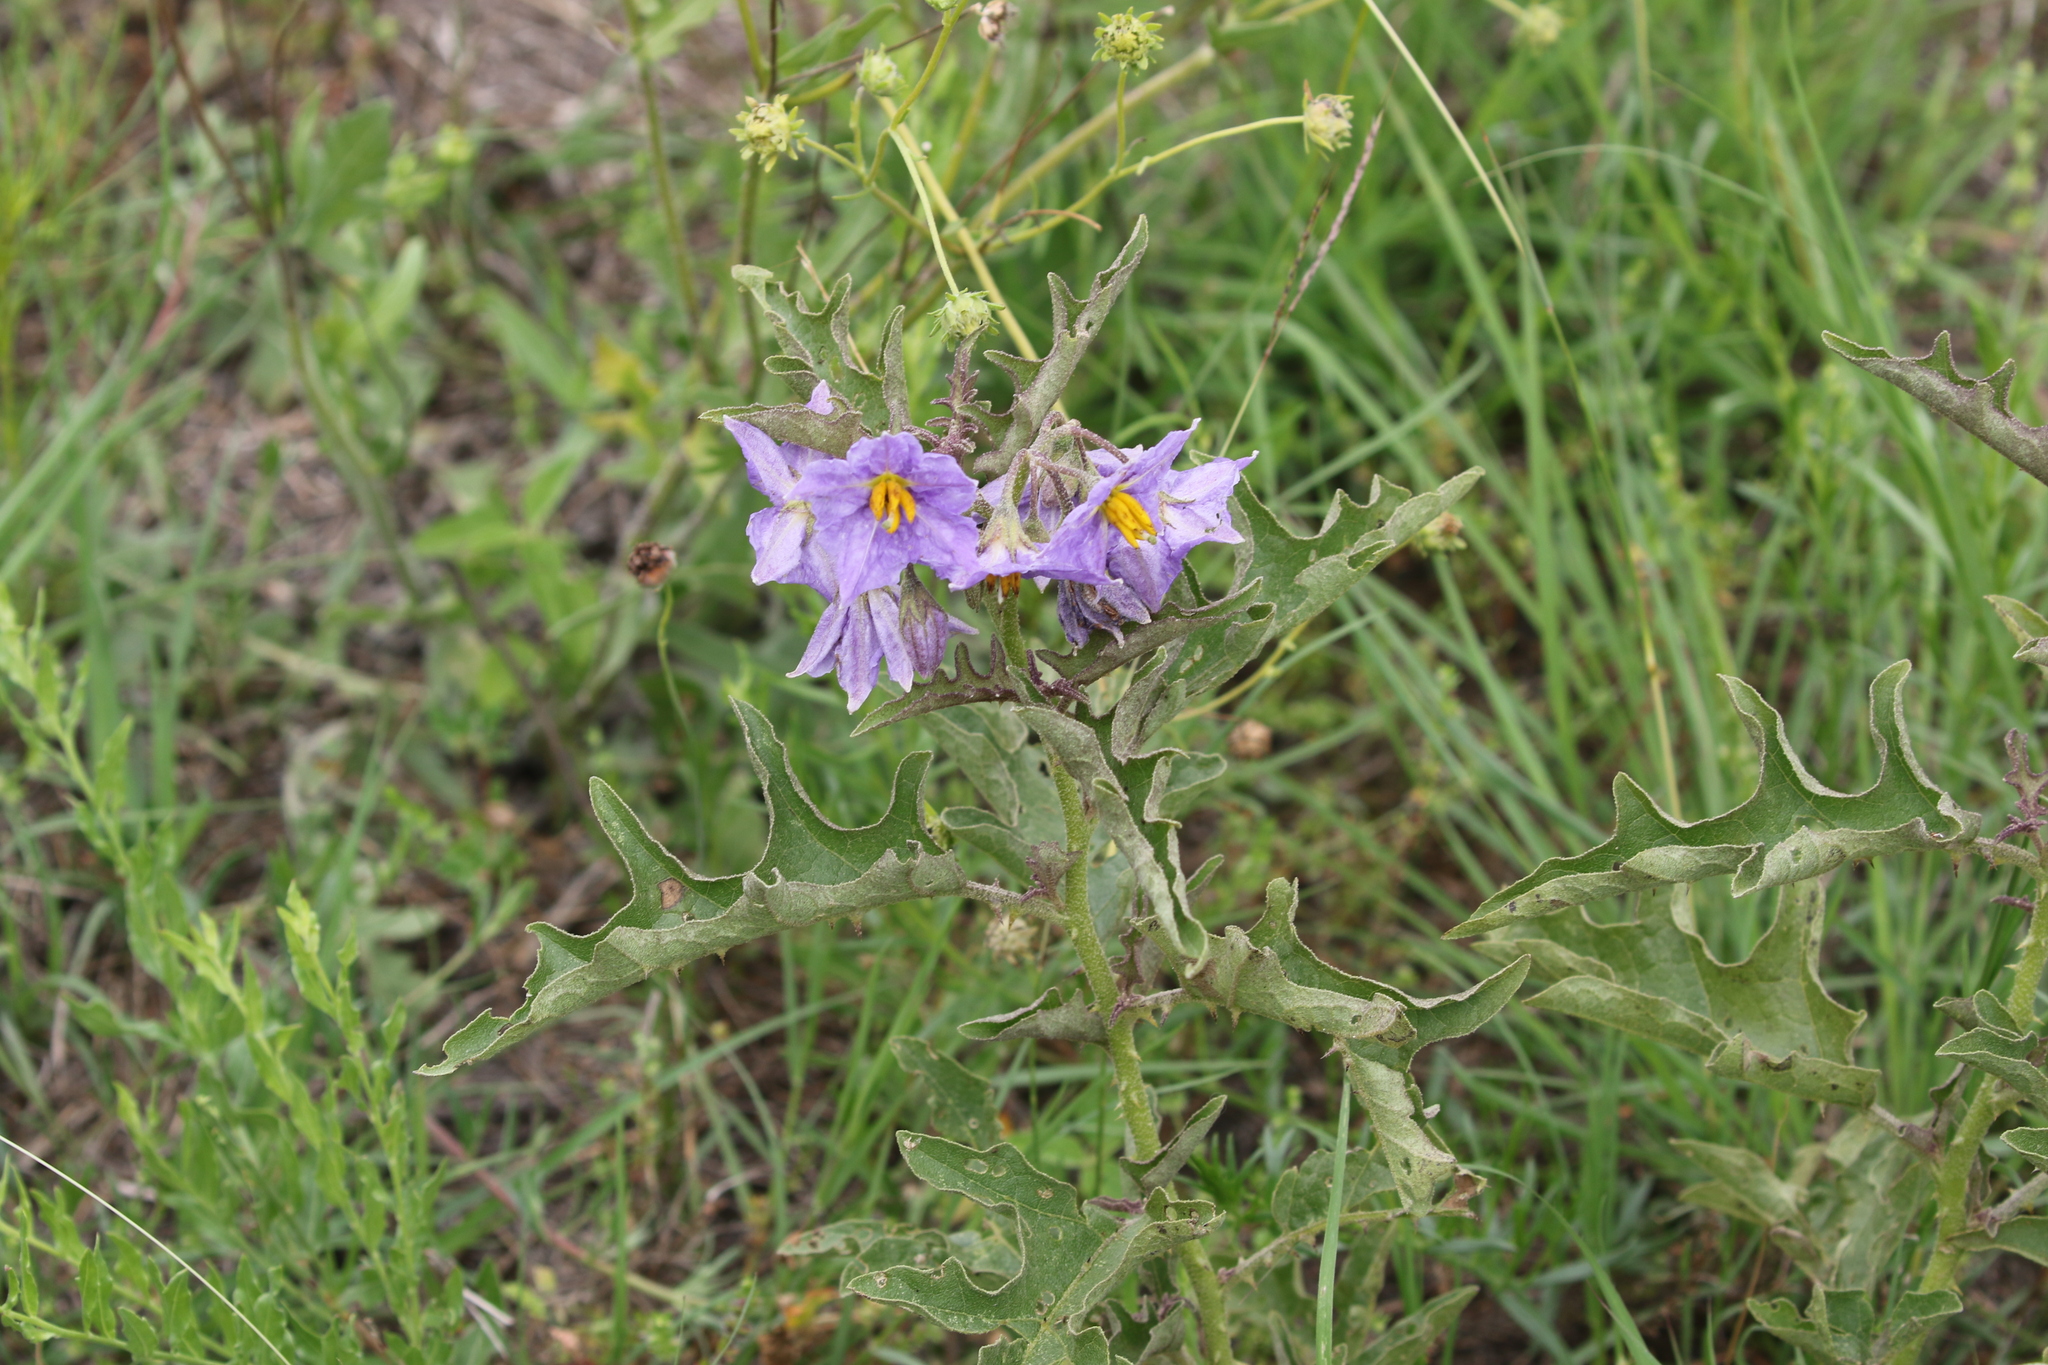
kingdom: Plantae
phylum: Tracheophyta
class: Magnoliopsida
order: Solanales
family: Solanaceae
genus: Solanum
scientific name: Solanum dimidiatum
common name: Carolina horse-nettle
